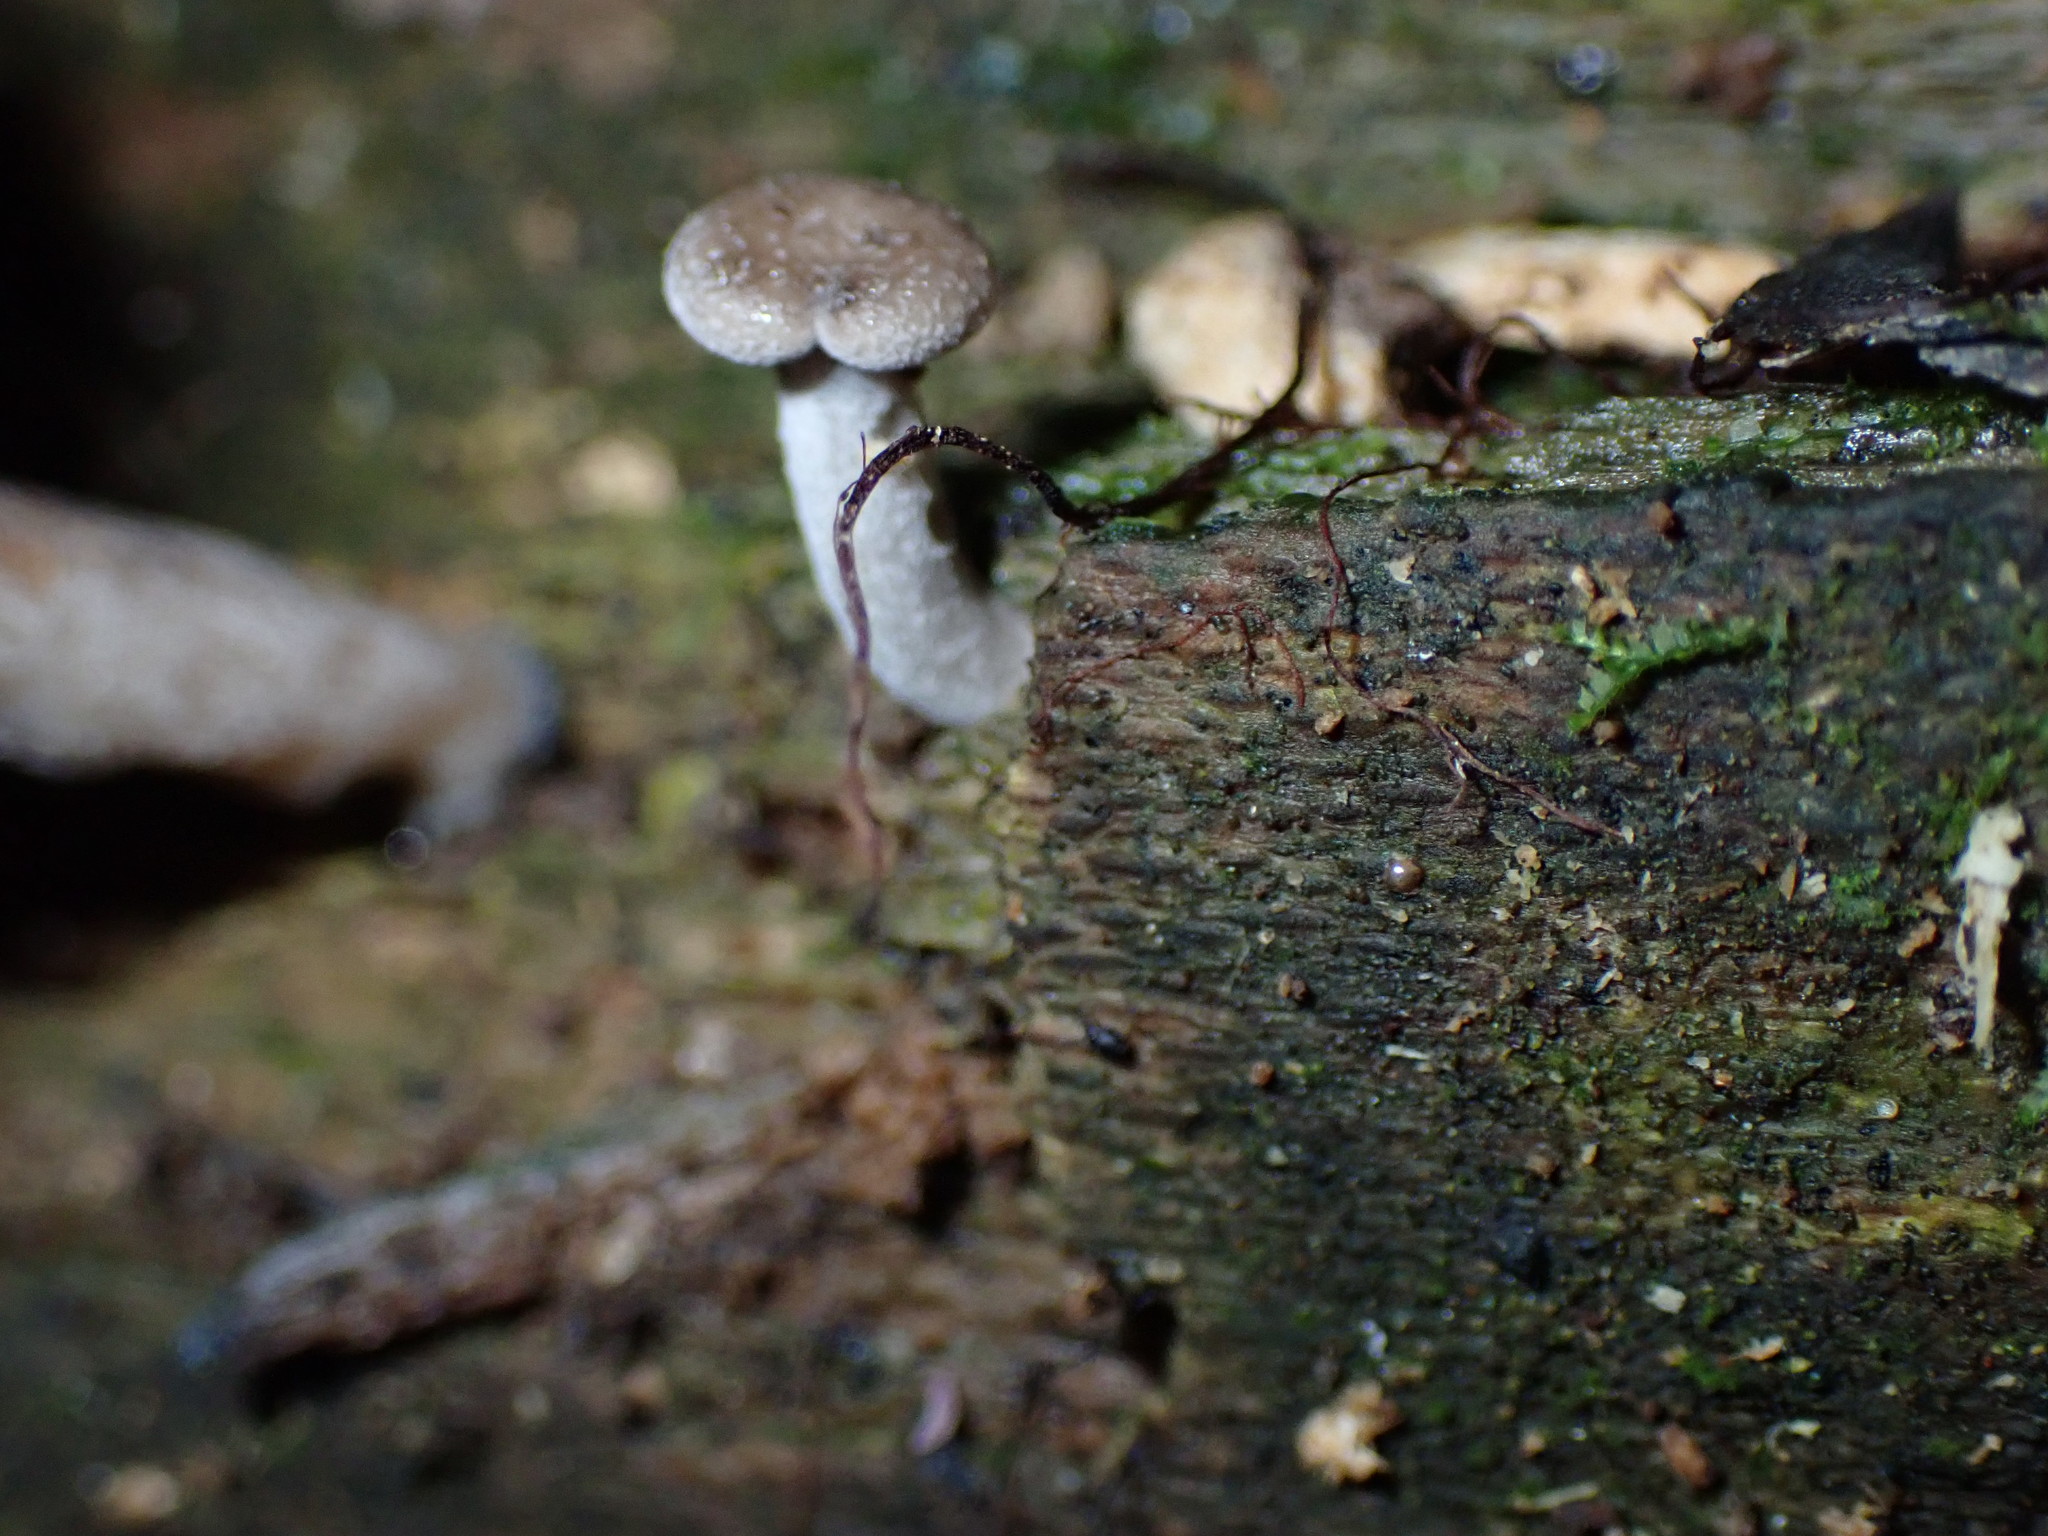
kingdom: Fungi
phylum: Basidiomycota
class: Agaricomycetes
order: Agaricales
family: Pleurotaceae
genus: Hohenbuehelia
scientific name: Hohenbuehelia
